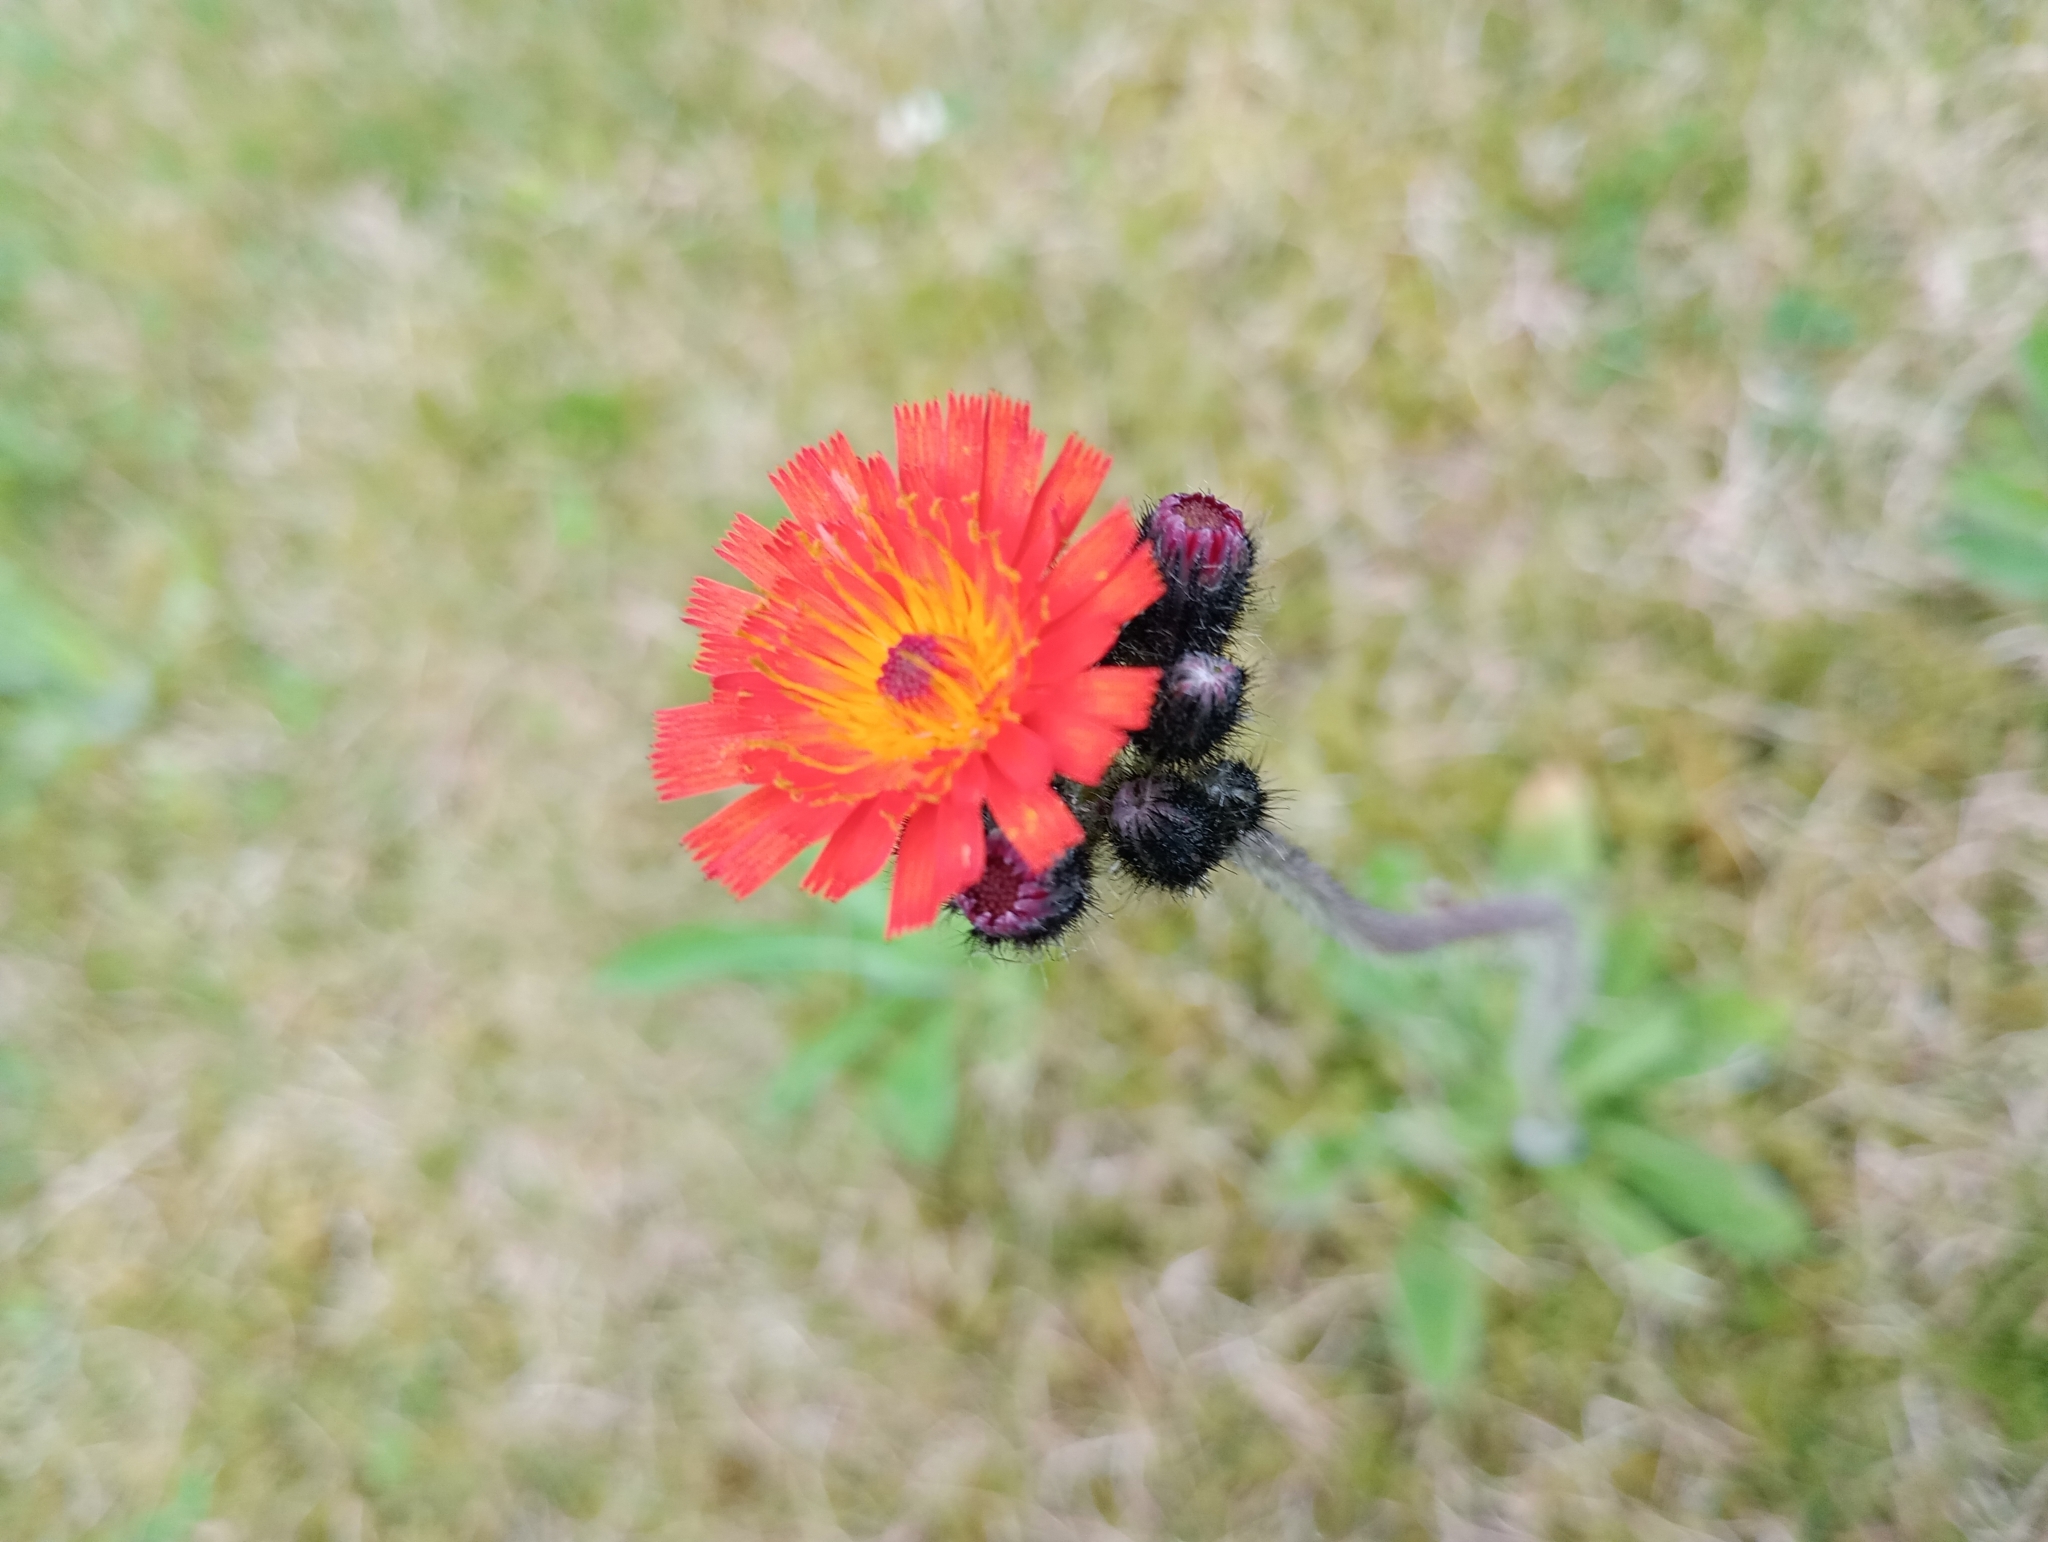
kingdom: Plantae
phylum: Tracheophyta
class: Magnoliopsida
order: Asterales
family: Asteraceae
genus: Pilosella
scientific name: Pilosella aurantiaca
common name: Fox-and-cubs
